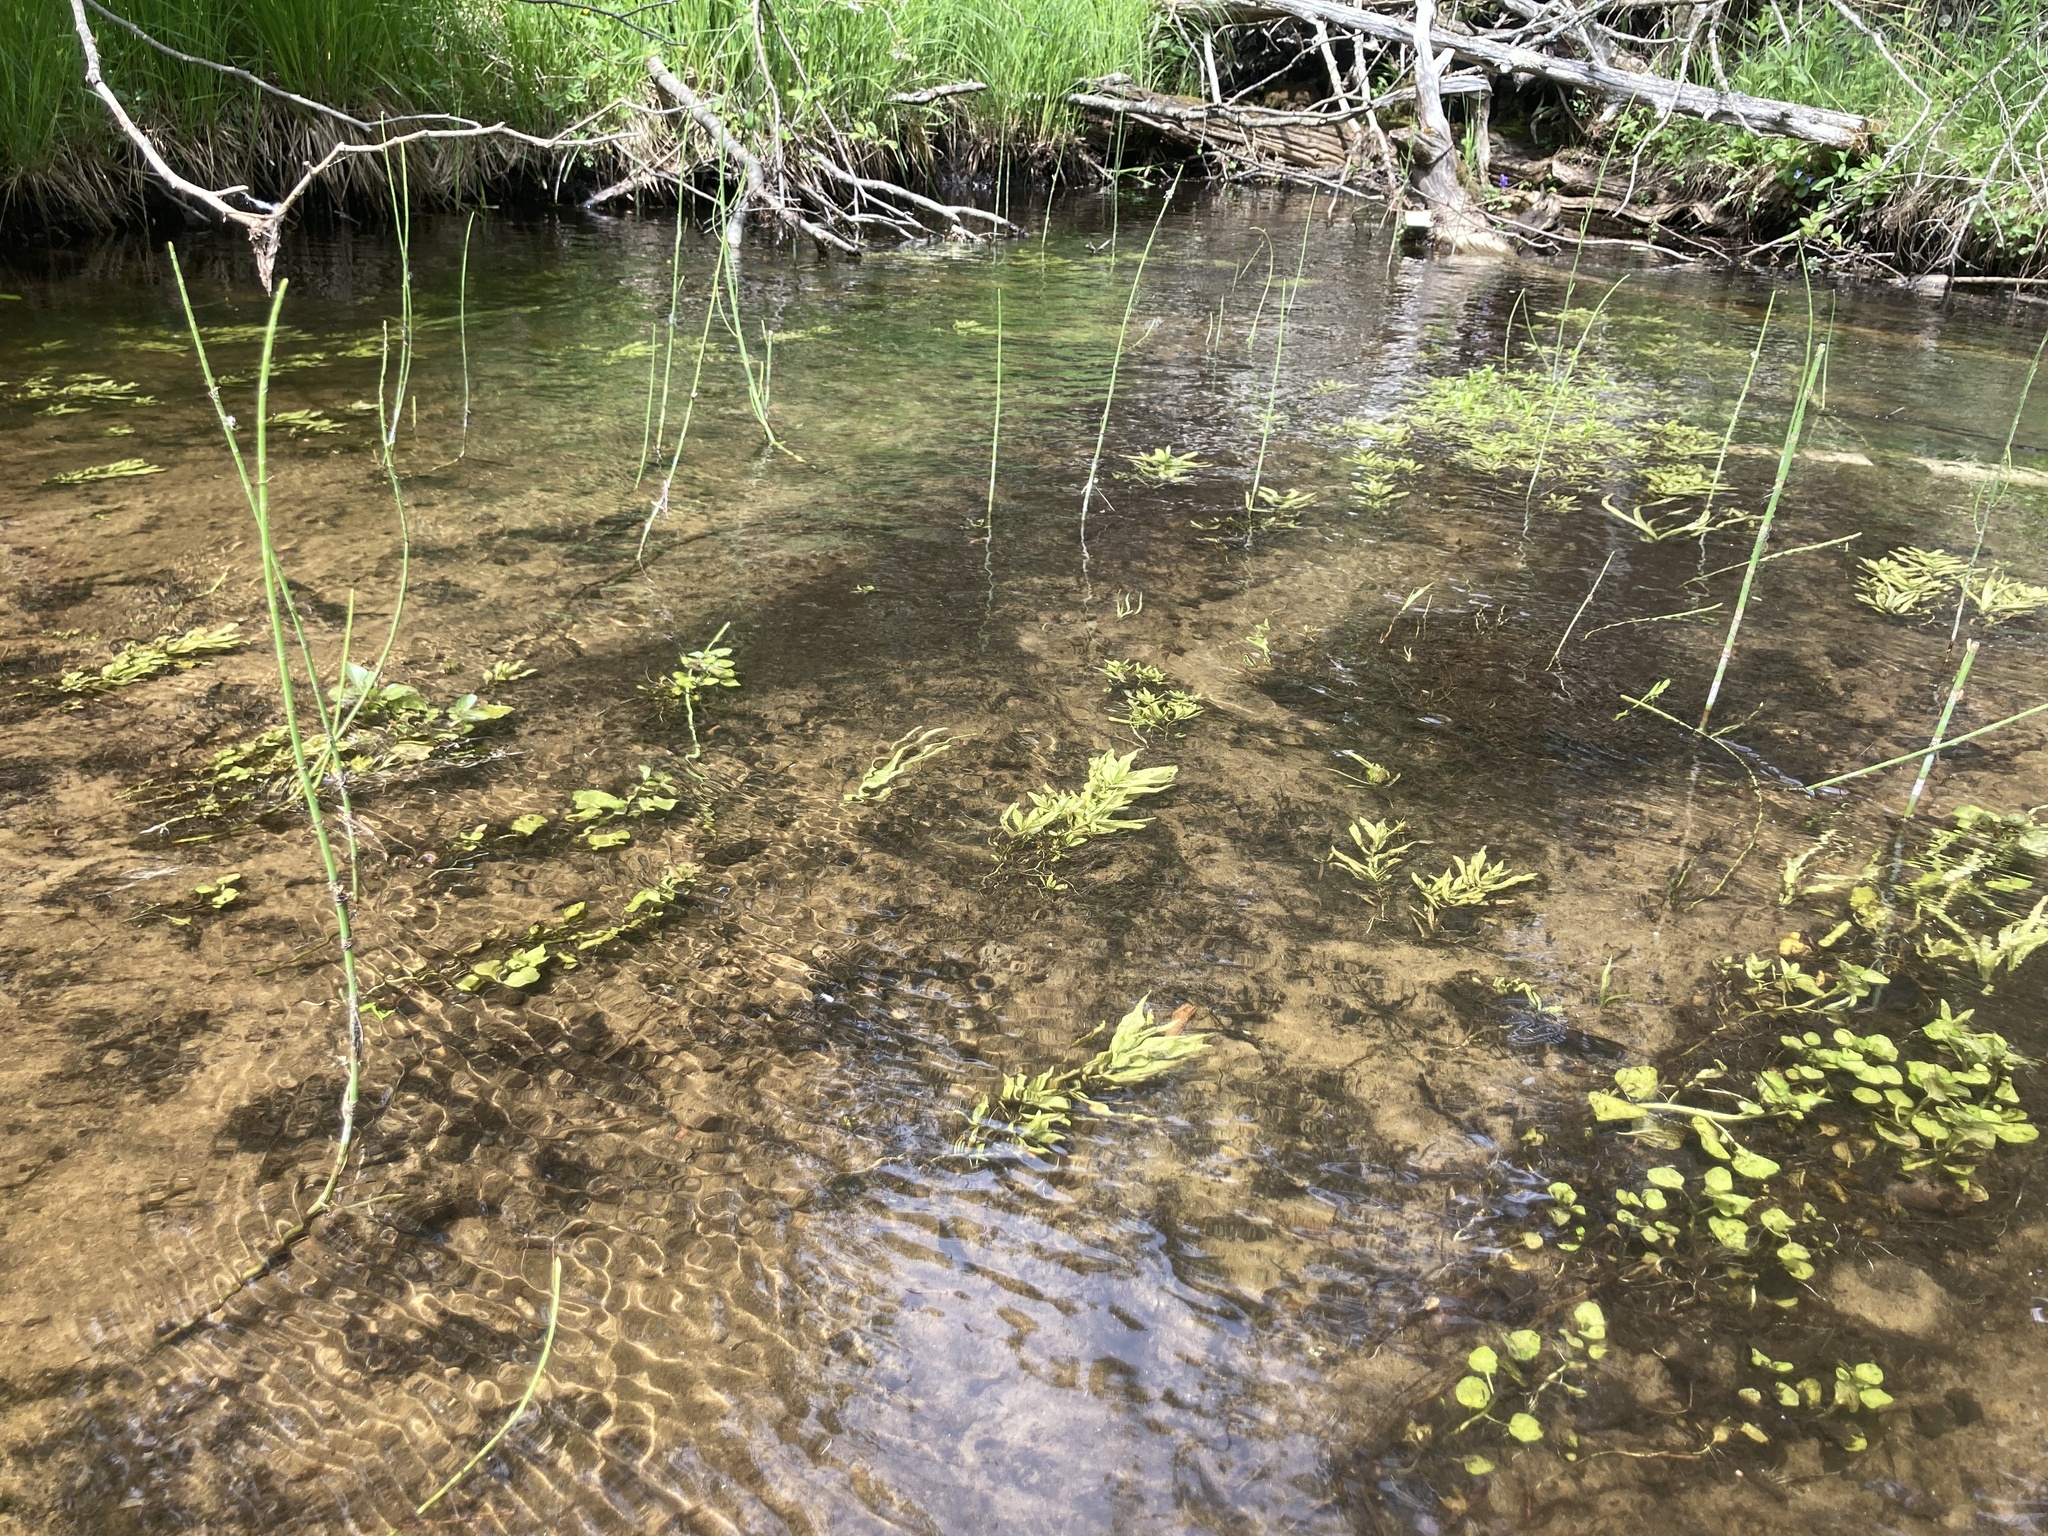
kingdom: Plantae
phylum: Tracheophyta
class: Polypodiopsida
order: Equisetales
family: Equisetaceae
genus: Equisetum
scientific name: Equisetum fluviatile
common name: Water horsetail
